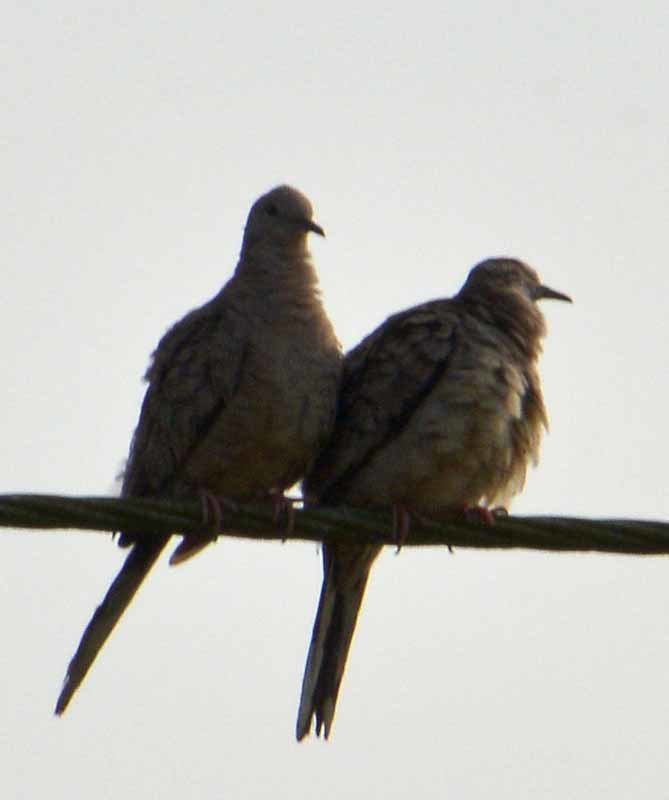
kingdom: Animalia
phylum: Chordata
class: Aves
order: Columbiformes
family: Columbidae
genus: Columbina
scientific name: Columbina inca
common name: Inca dove
